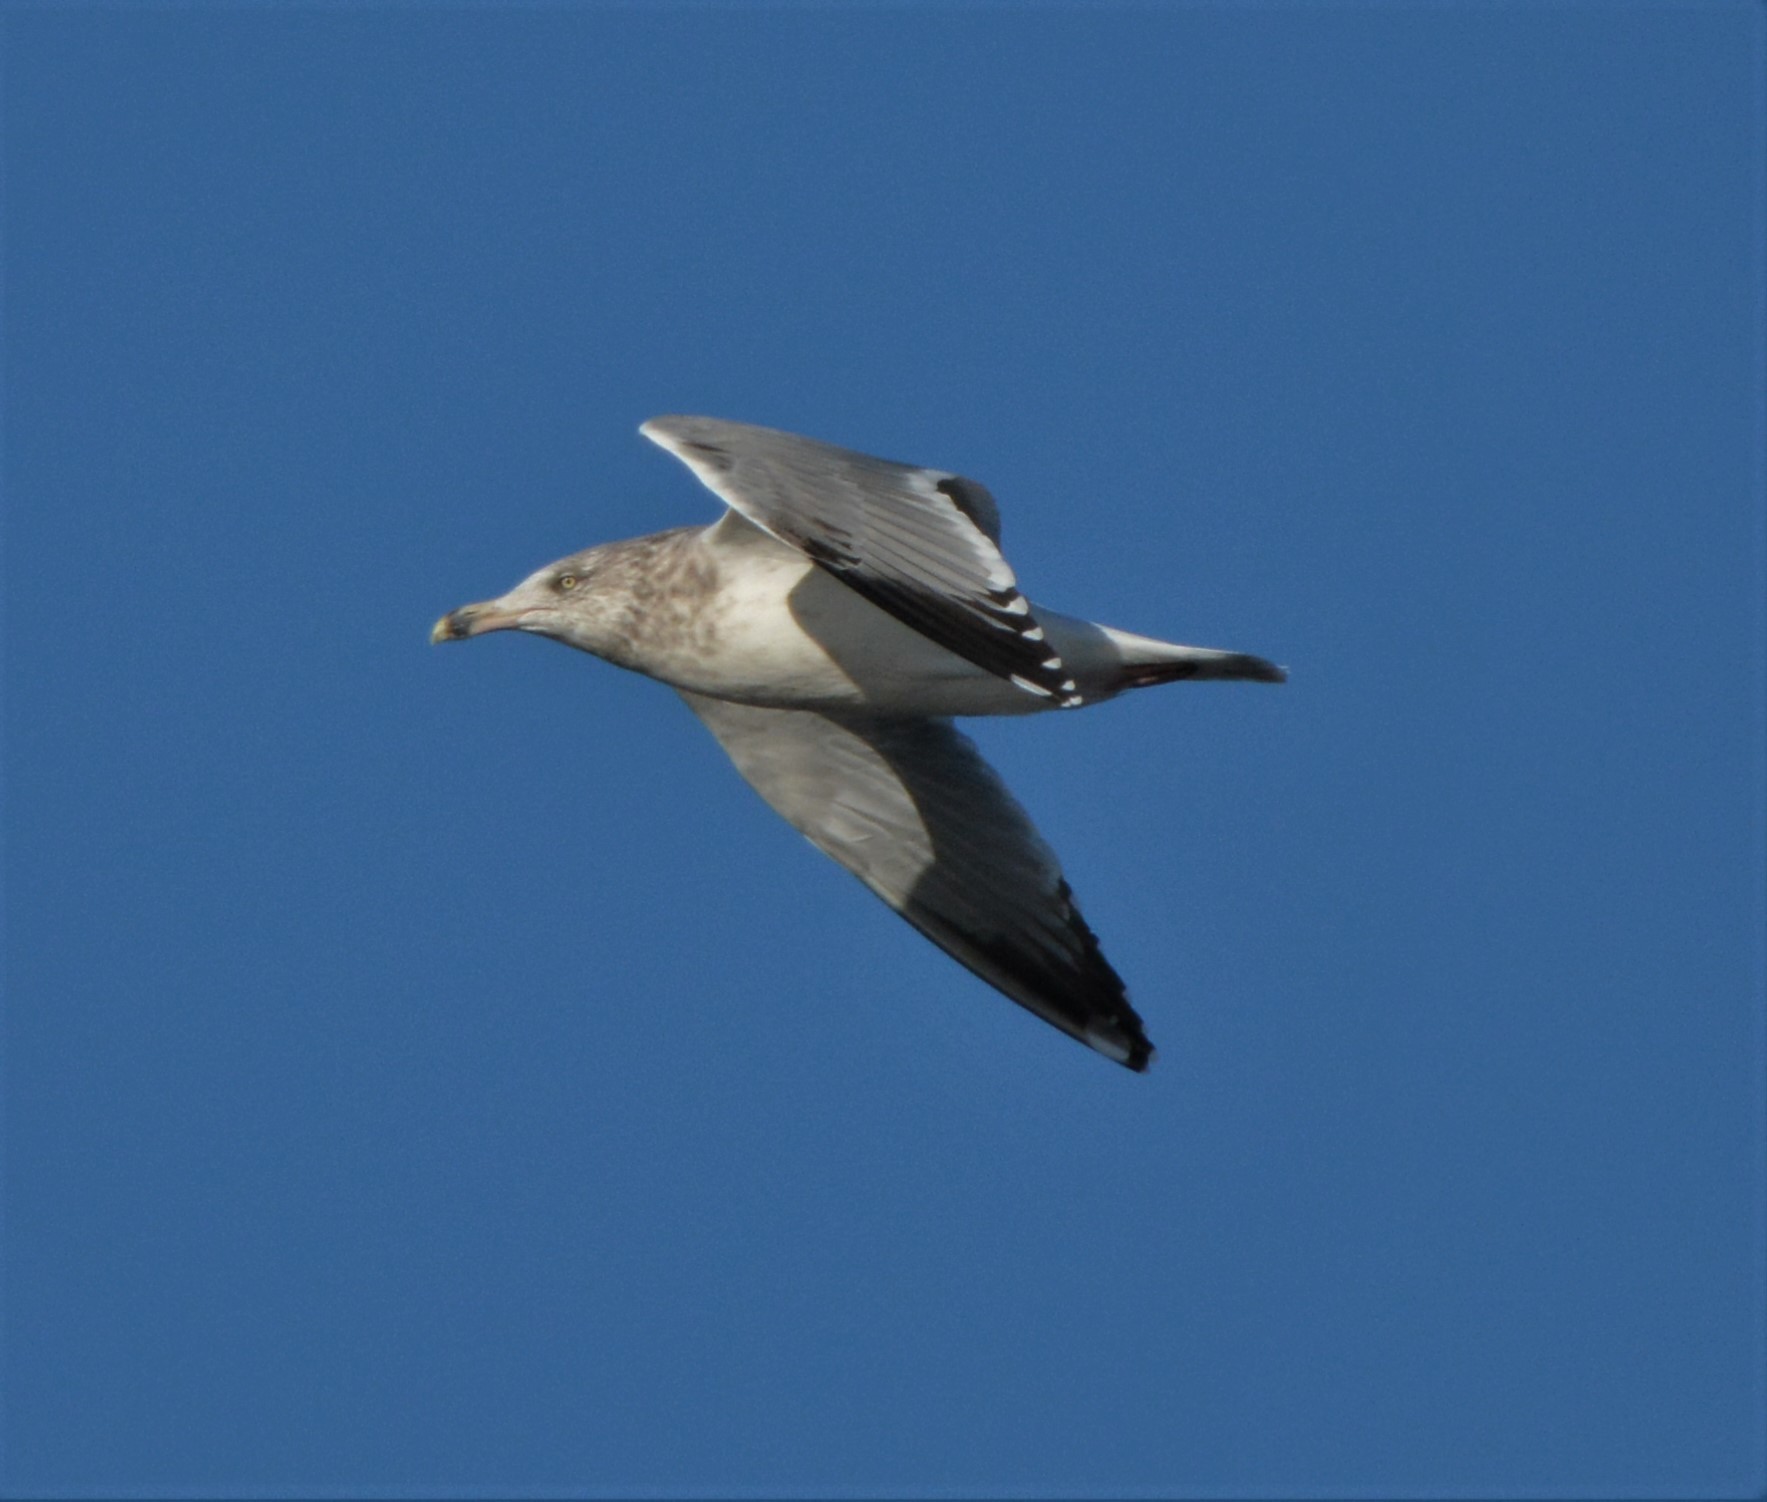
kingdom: Animalia
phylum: Chordata
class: Aves
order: Charadriiformes
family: Laridae
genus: Larus
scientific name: Larus argentatus
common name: Herring gull
